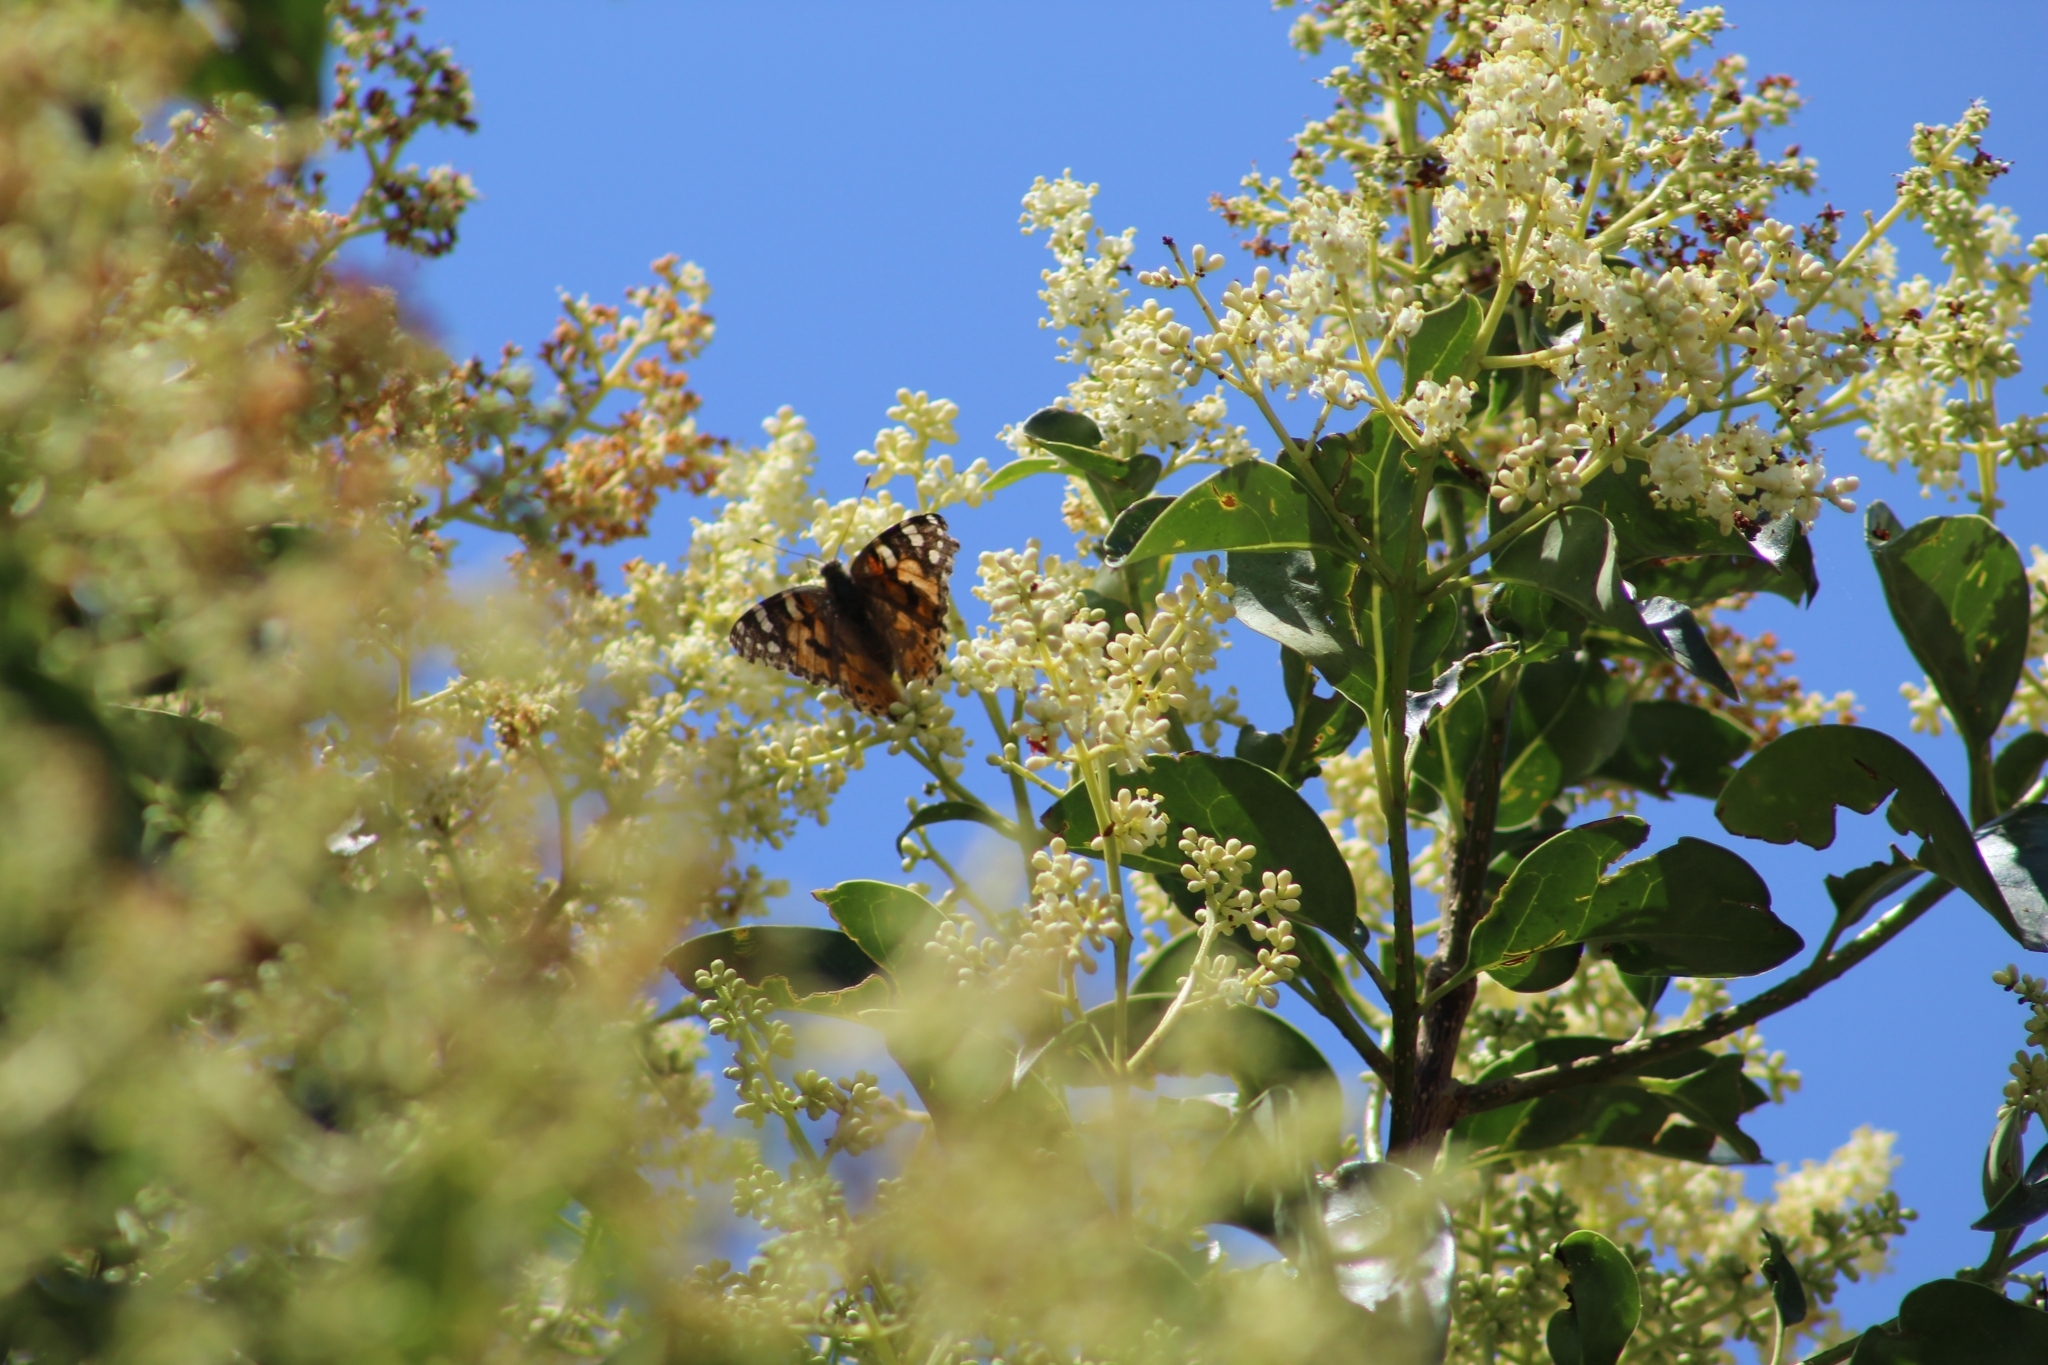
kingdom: Animalia
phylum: Arthropoda
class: Insecta
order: Lepidoptera
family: Nymphalidae
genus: Vanessa
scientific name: Vanessa cardui
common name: Painted lady
